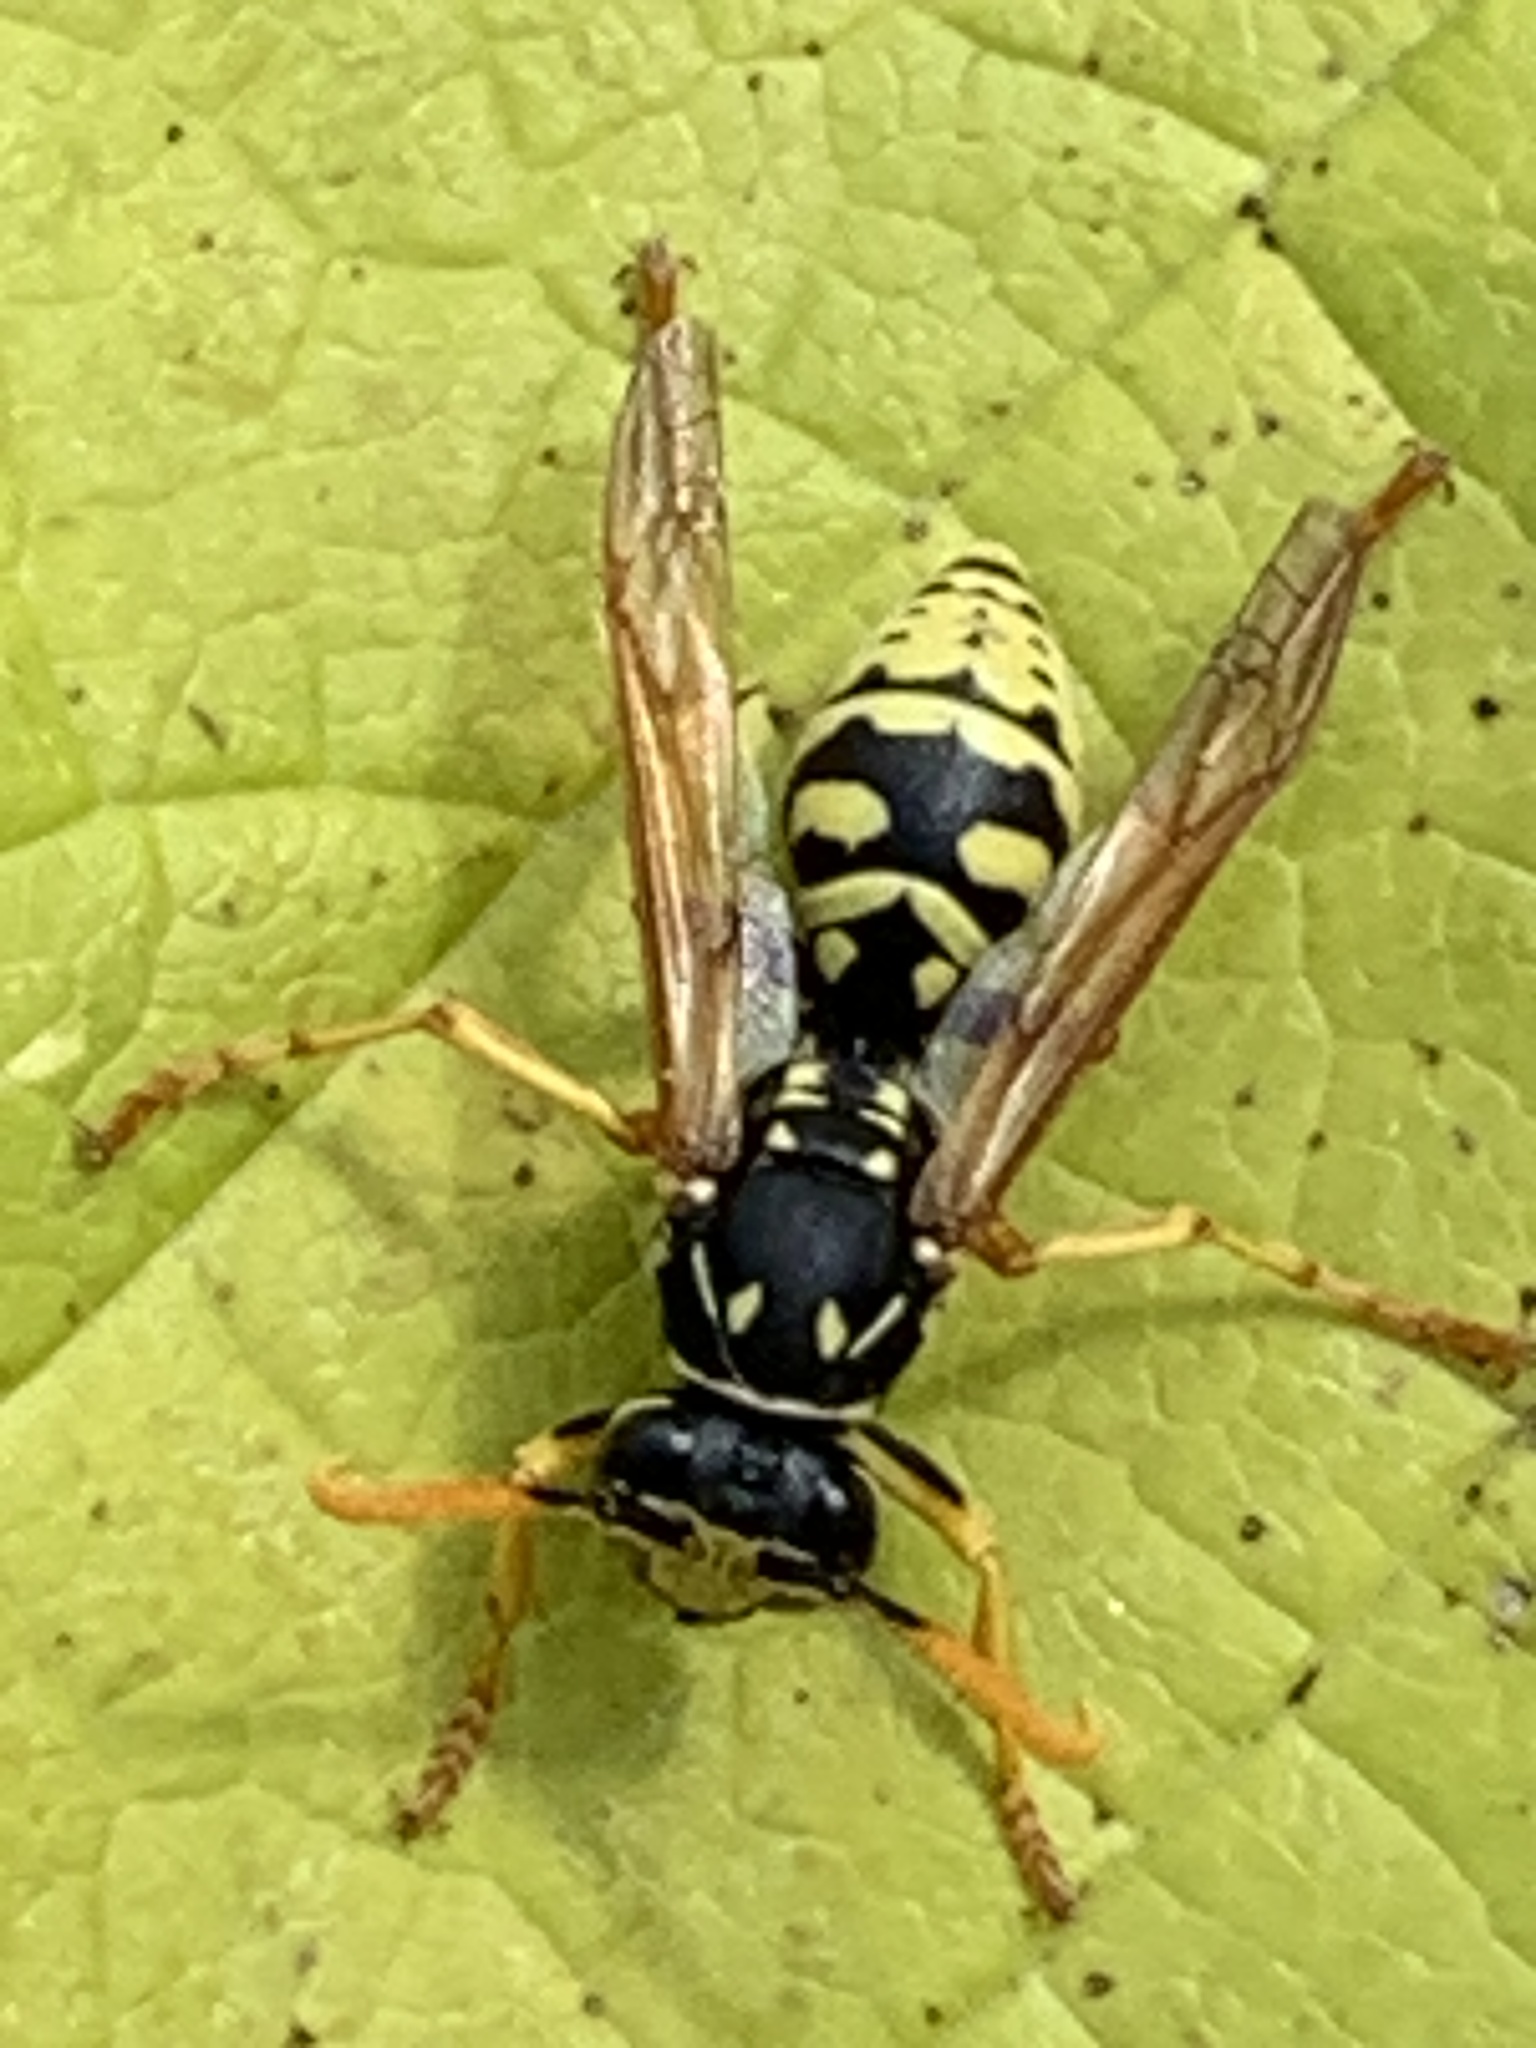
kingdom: Animalia
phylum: Arthropoda
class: Insecta
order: Hymenoptera
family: Eumenidae
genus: Polistes
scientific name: Polistes dominula
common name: Paper wasp
